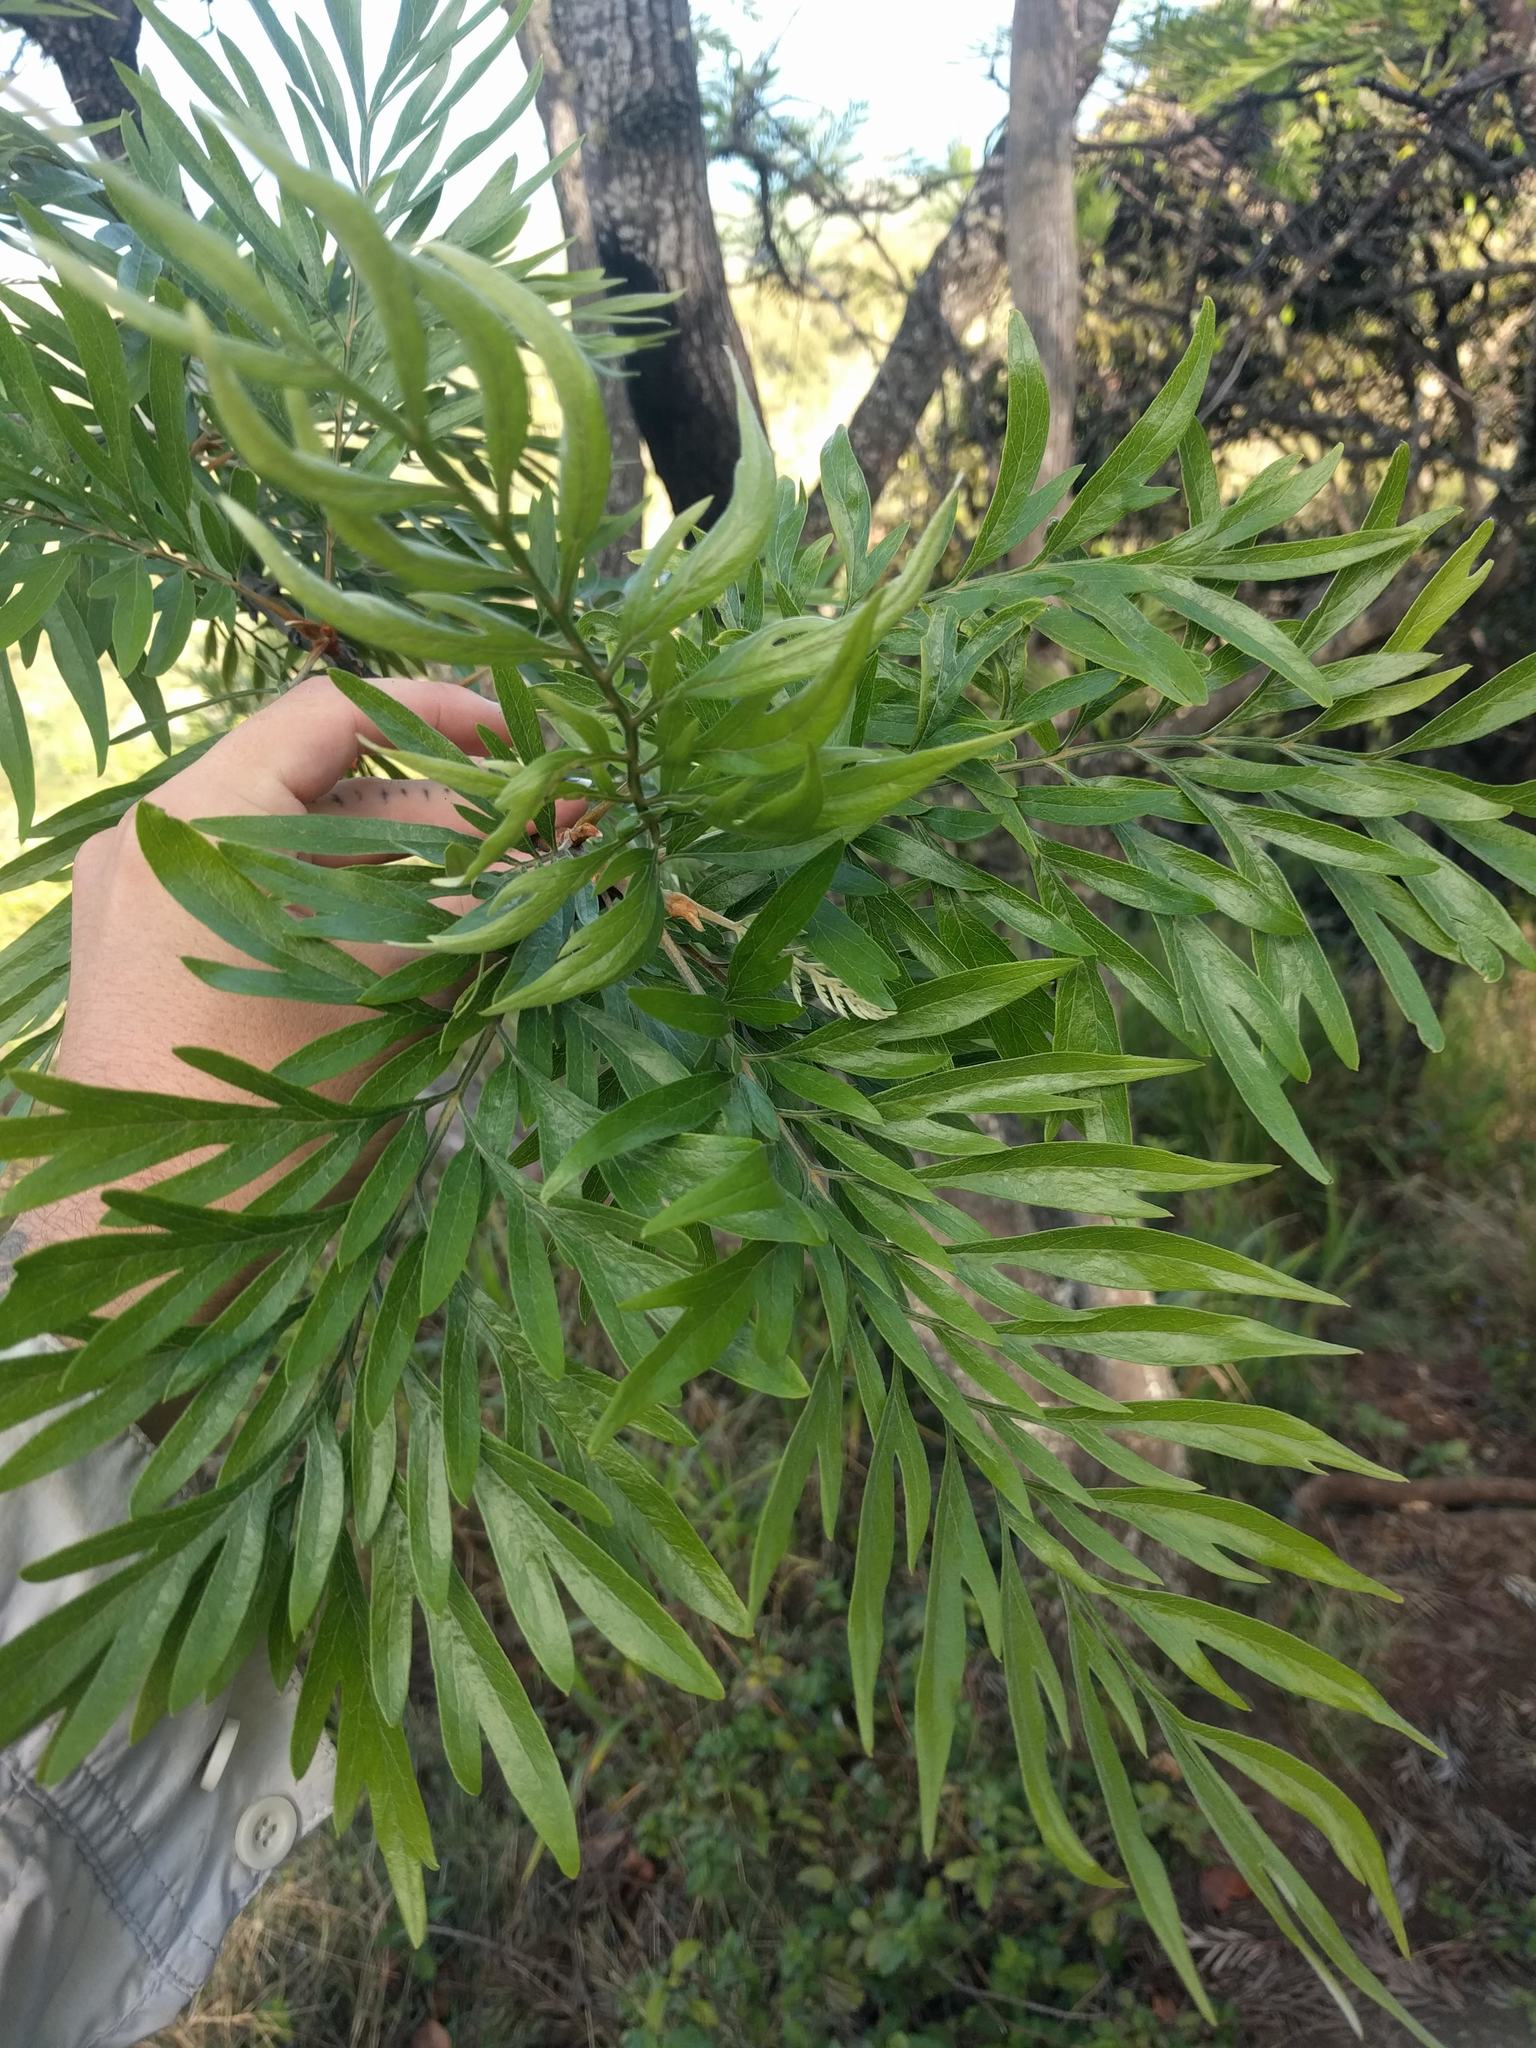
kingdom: Plantae
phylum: Tracheophyta
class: Magnoliopsida
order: Proteales
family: Proteaceae
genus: Grevillea
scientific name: Grevillea robusta
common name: Silkoak
